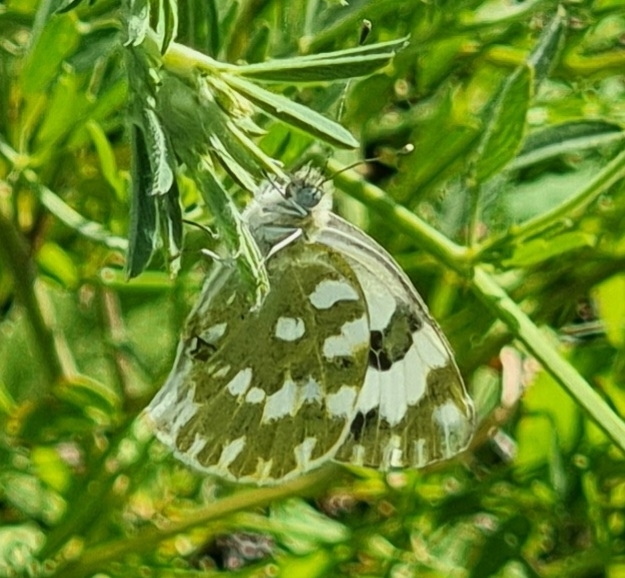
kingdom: Animalia
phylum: Arthropoda
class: Insecta
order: Lepidoptera
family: Pieridae
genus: Pontia
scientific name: Pontia edusa
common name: Eastern bath white
